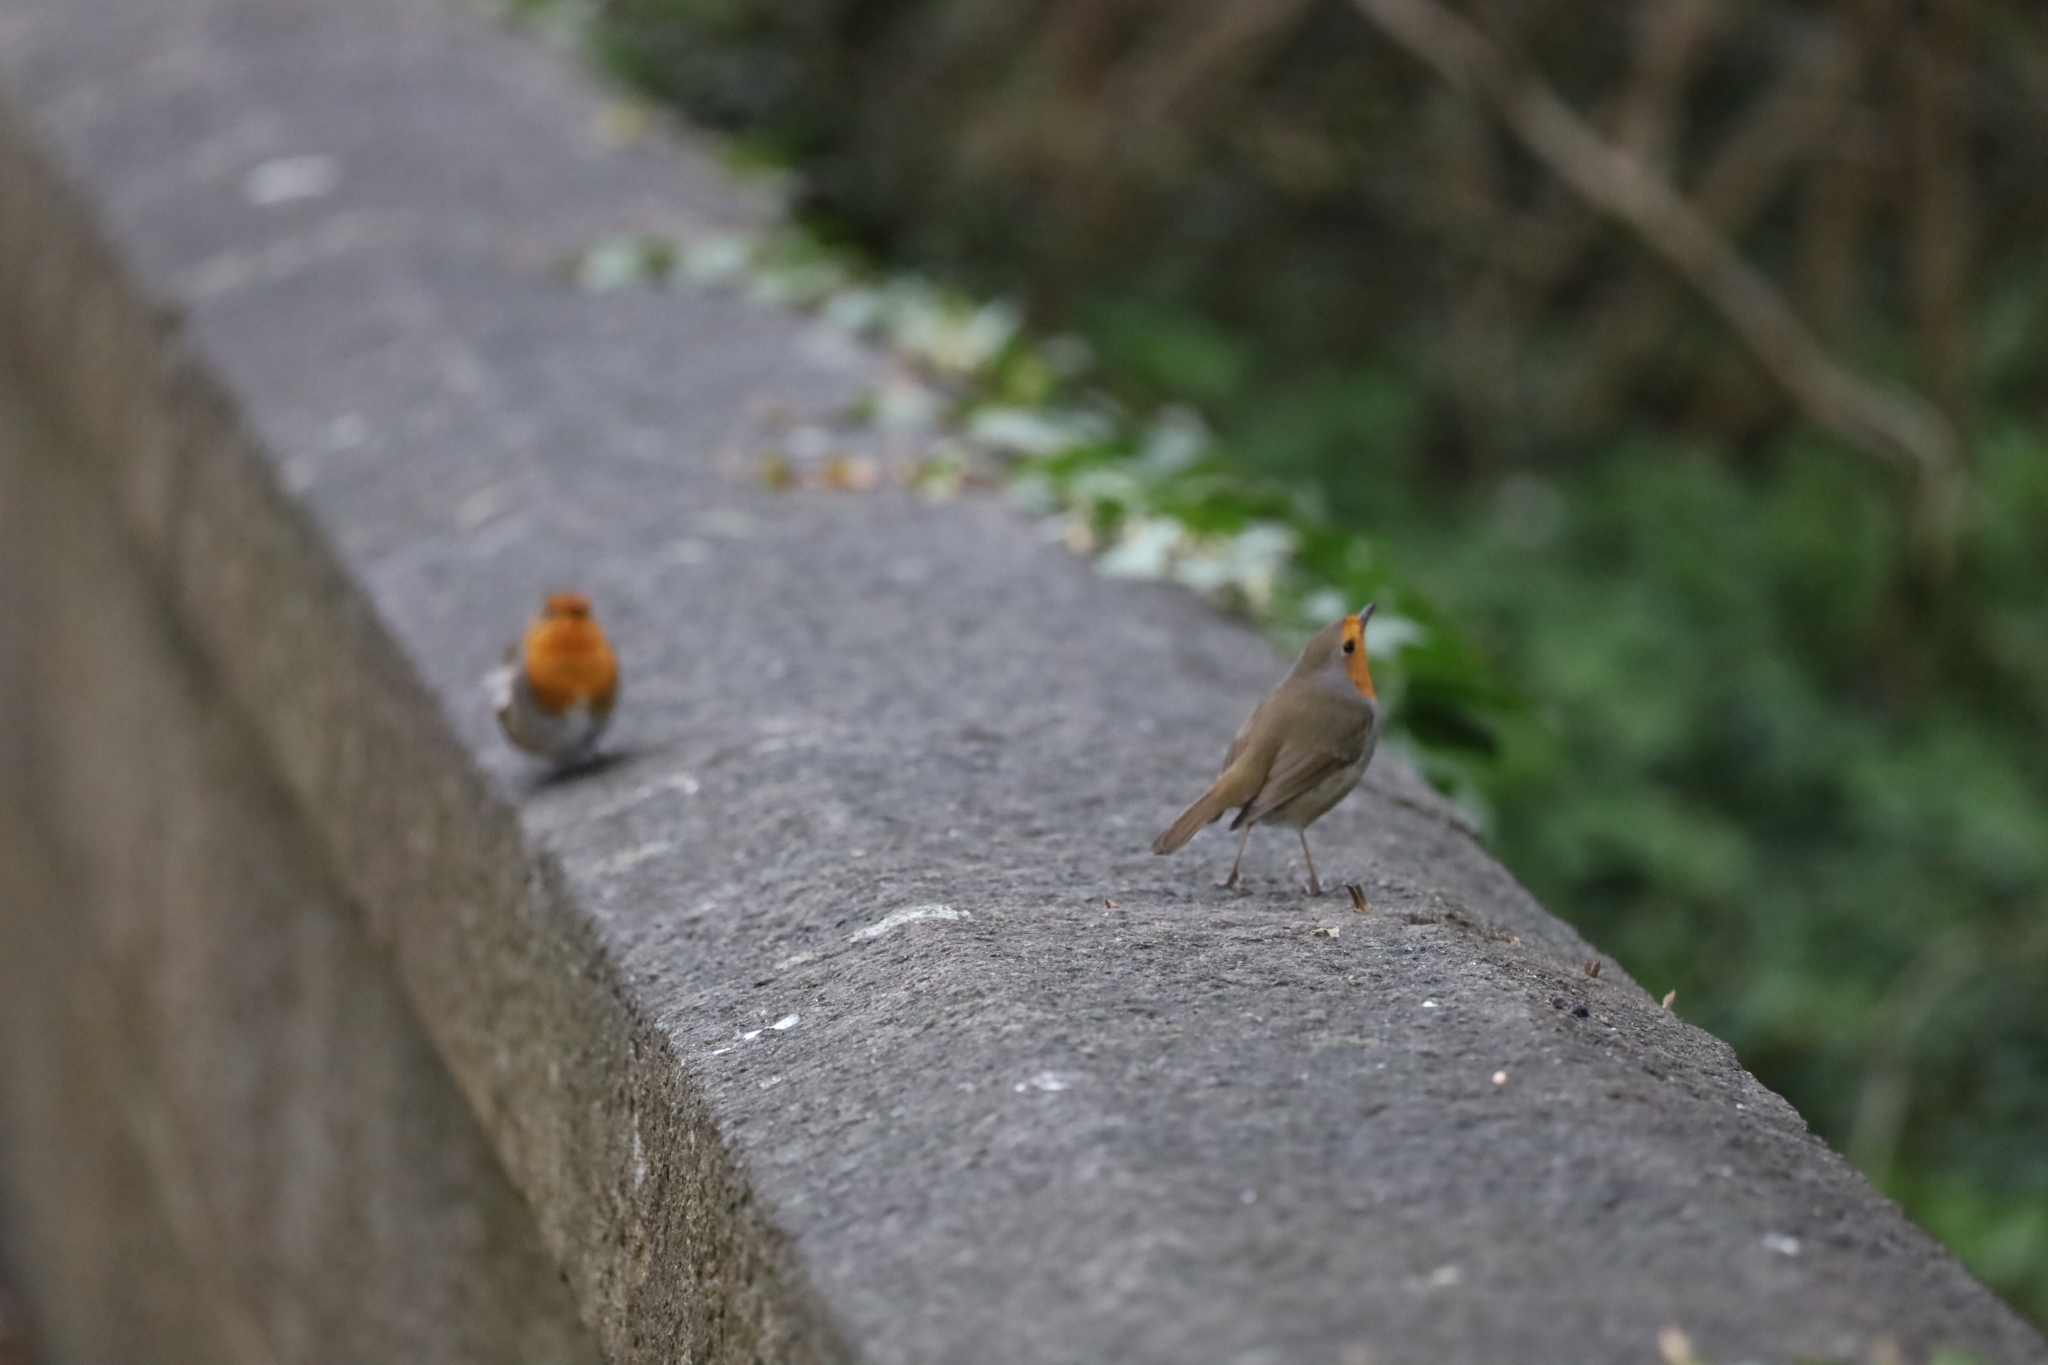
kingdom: Animalia
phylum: Chordata
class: Aves
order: Passeriformes
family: Muscicapidae
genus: Erithacus
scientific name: Erithacus rubecula
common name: European robin
